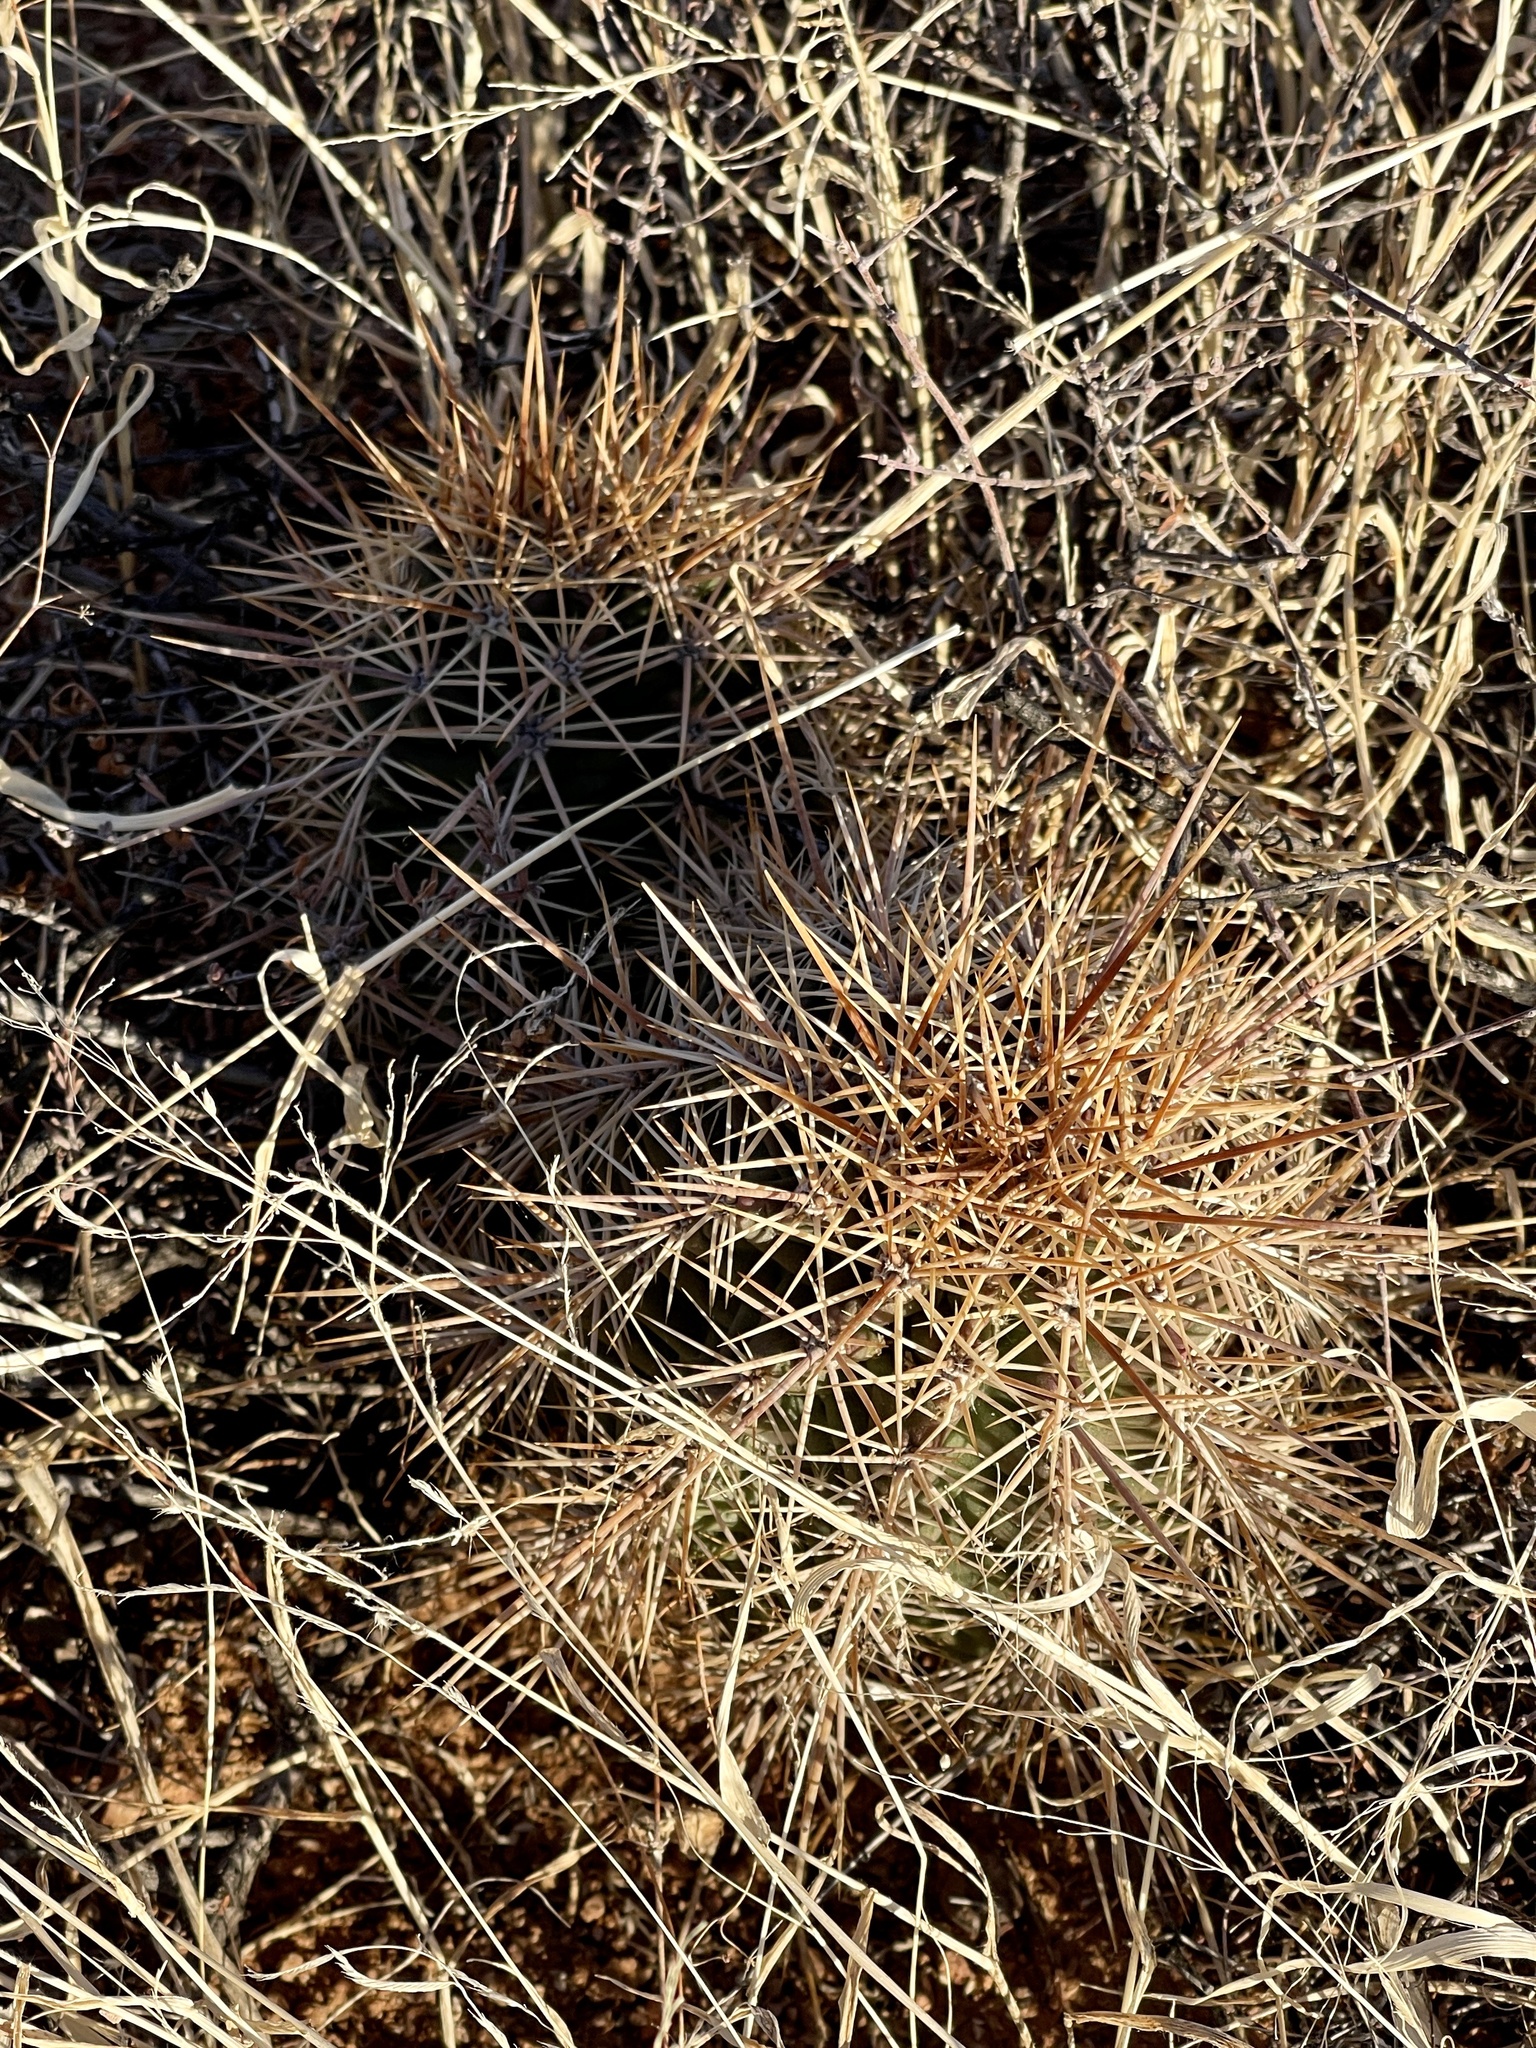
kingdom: Plantae
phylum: Tracheophyta
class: Magnoliopsida
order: Caryophyllales
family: Cactaceae
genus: Echinocereus
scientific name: Echinocereus coccineus
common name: Scarlet hedgehog cactus
